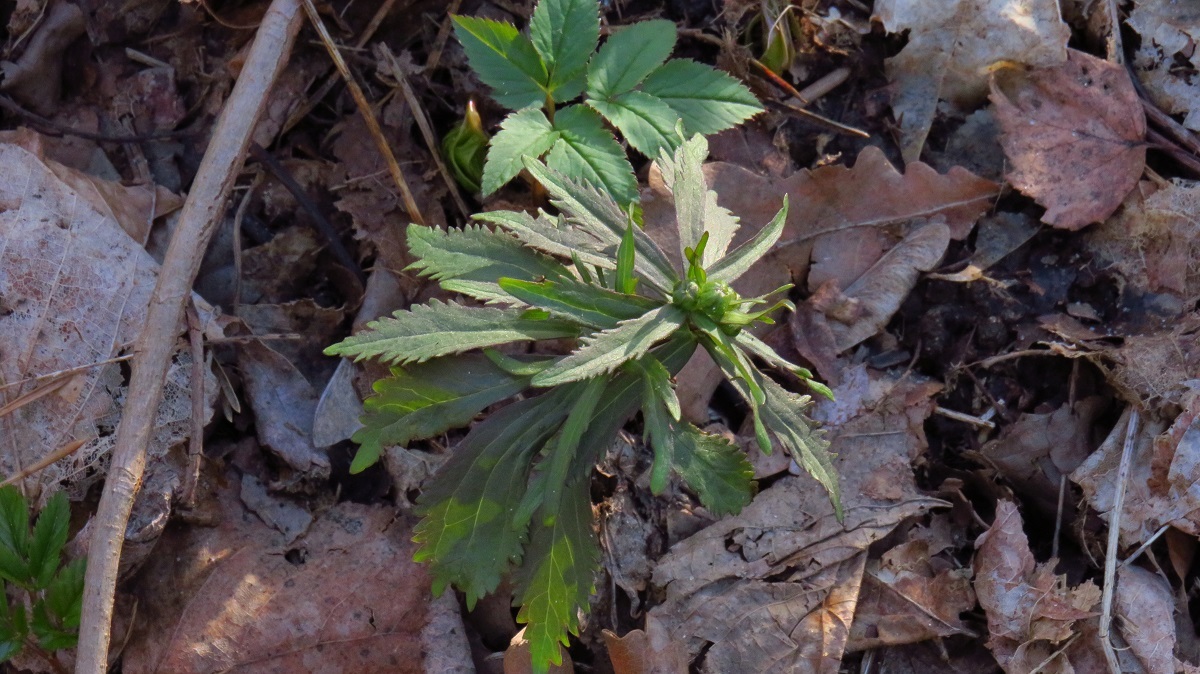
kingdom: Plantae
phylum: Tracheophyta
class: Magnoliopsida
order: Ranunculales
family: Ranunculaceae
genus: Ranunculus
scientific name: Ranunculus cassubicus
